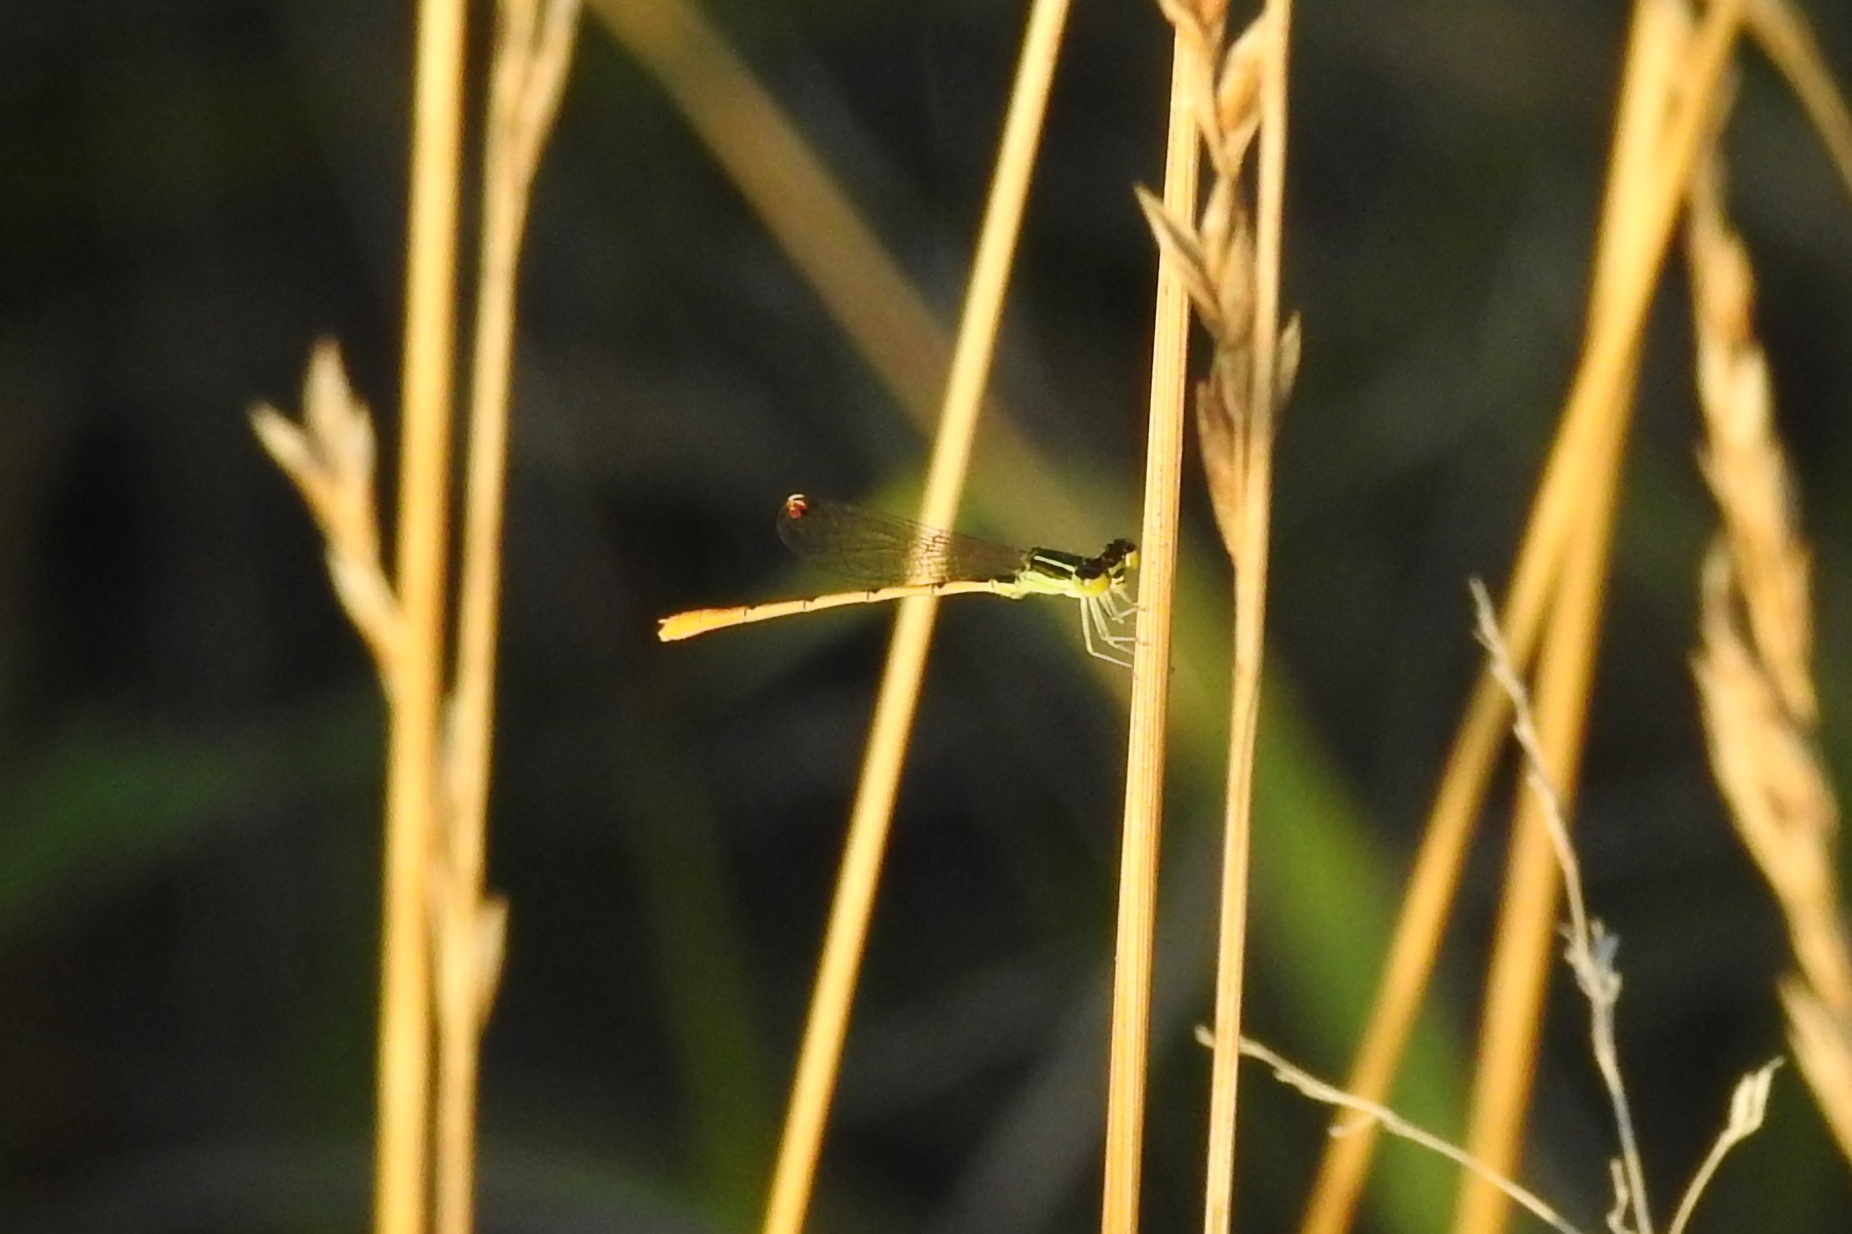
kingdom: Animalia
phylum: Arthropoda
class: Insecta
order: Odonata
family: Coenagrionidae
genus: Ischnura
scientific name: Ischnura hastata
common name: Citrine forktail
